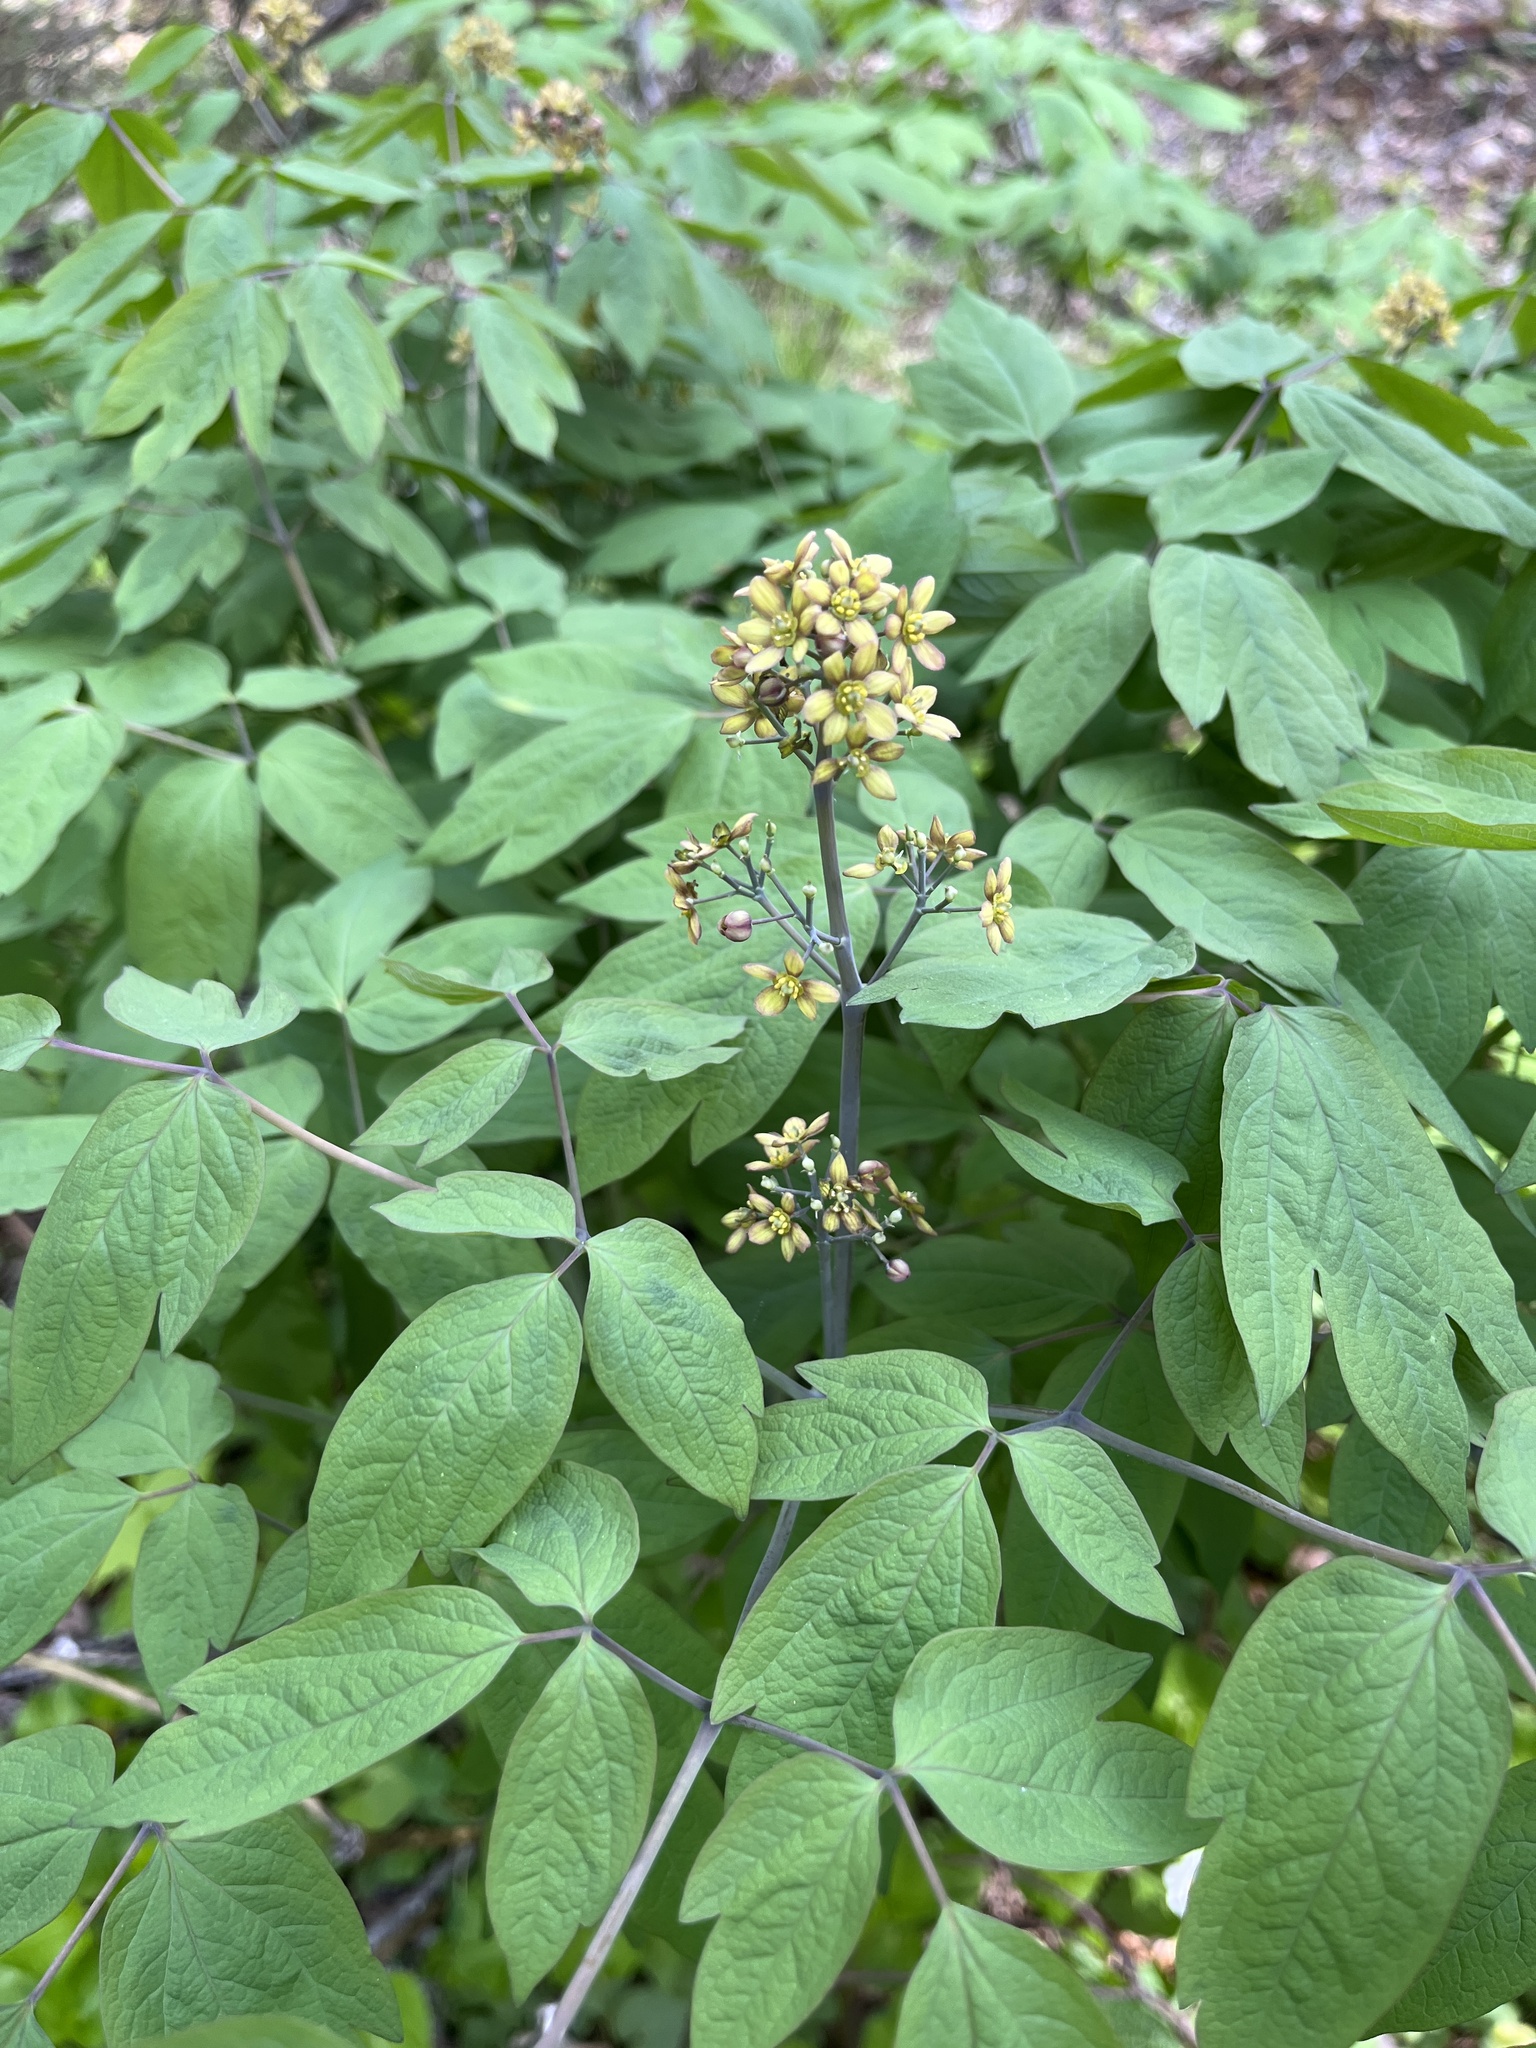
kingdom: Plantae
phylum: Tracheophyta
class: Magnoliopsida
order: Ranunculales
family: Berberidaceae
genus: Caulophyllum
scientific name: Caulophyllum thalictroides
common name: Blue cohosh
